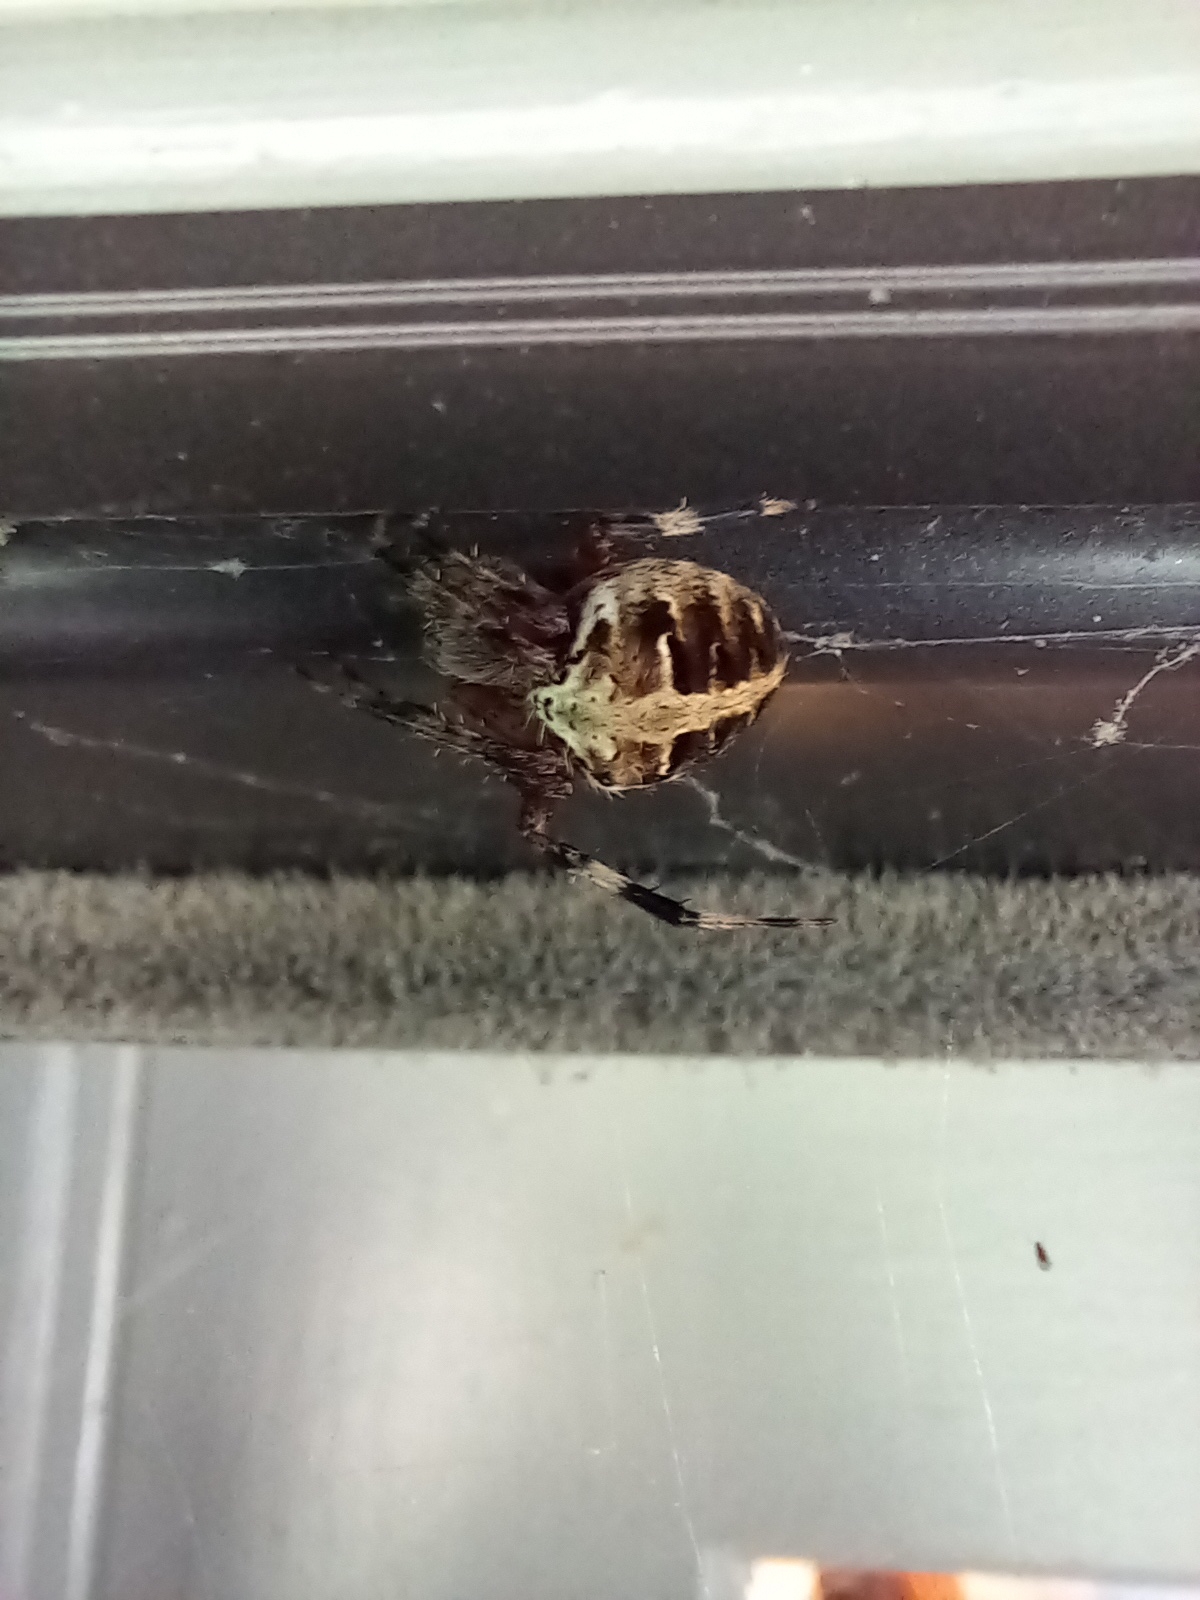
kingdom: Animalia
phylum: Arthropoda
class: Arachnida
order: Araneae
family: Araneidae
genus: Neoscona
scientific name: Neoscona domiciliorum
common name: Red-femured spotted orbweaver
